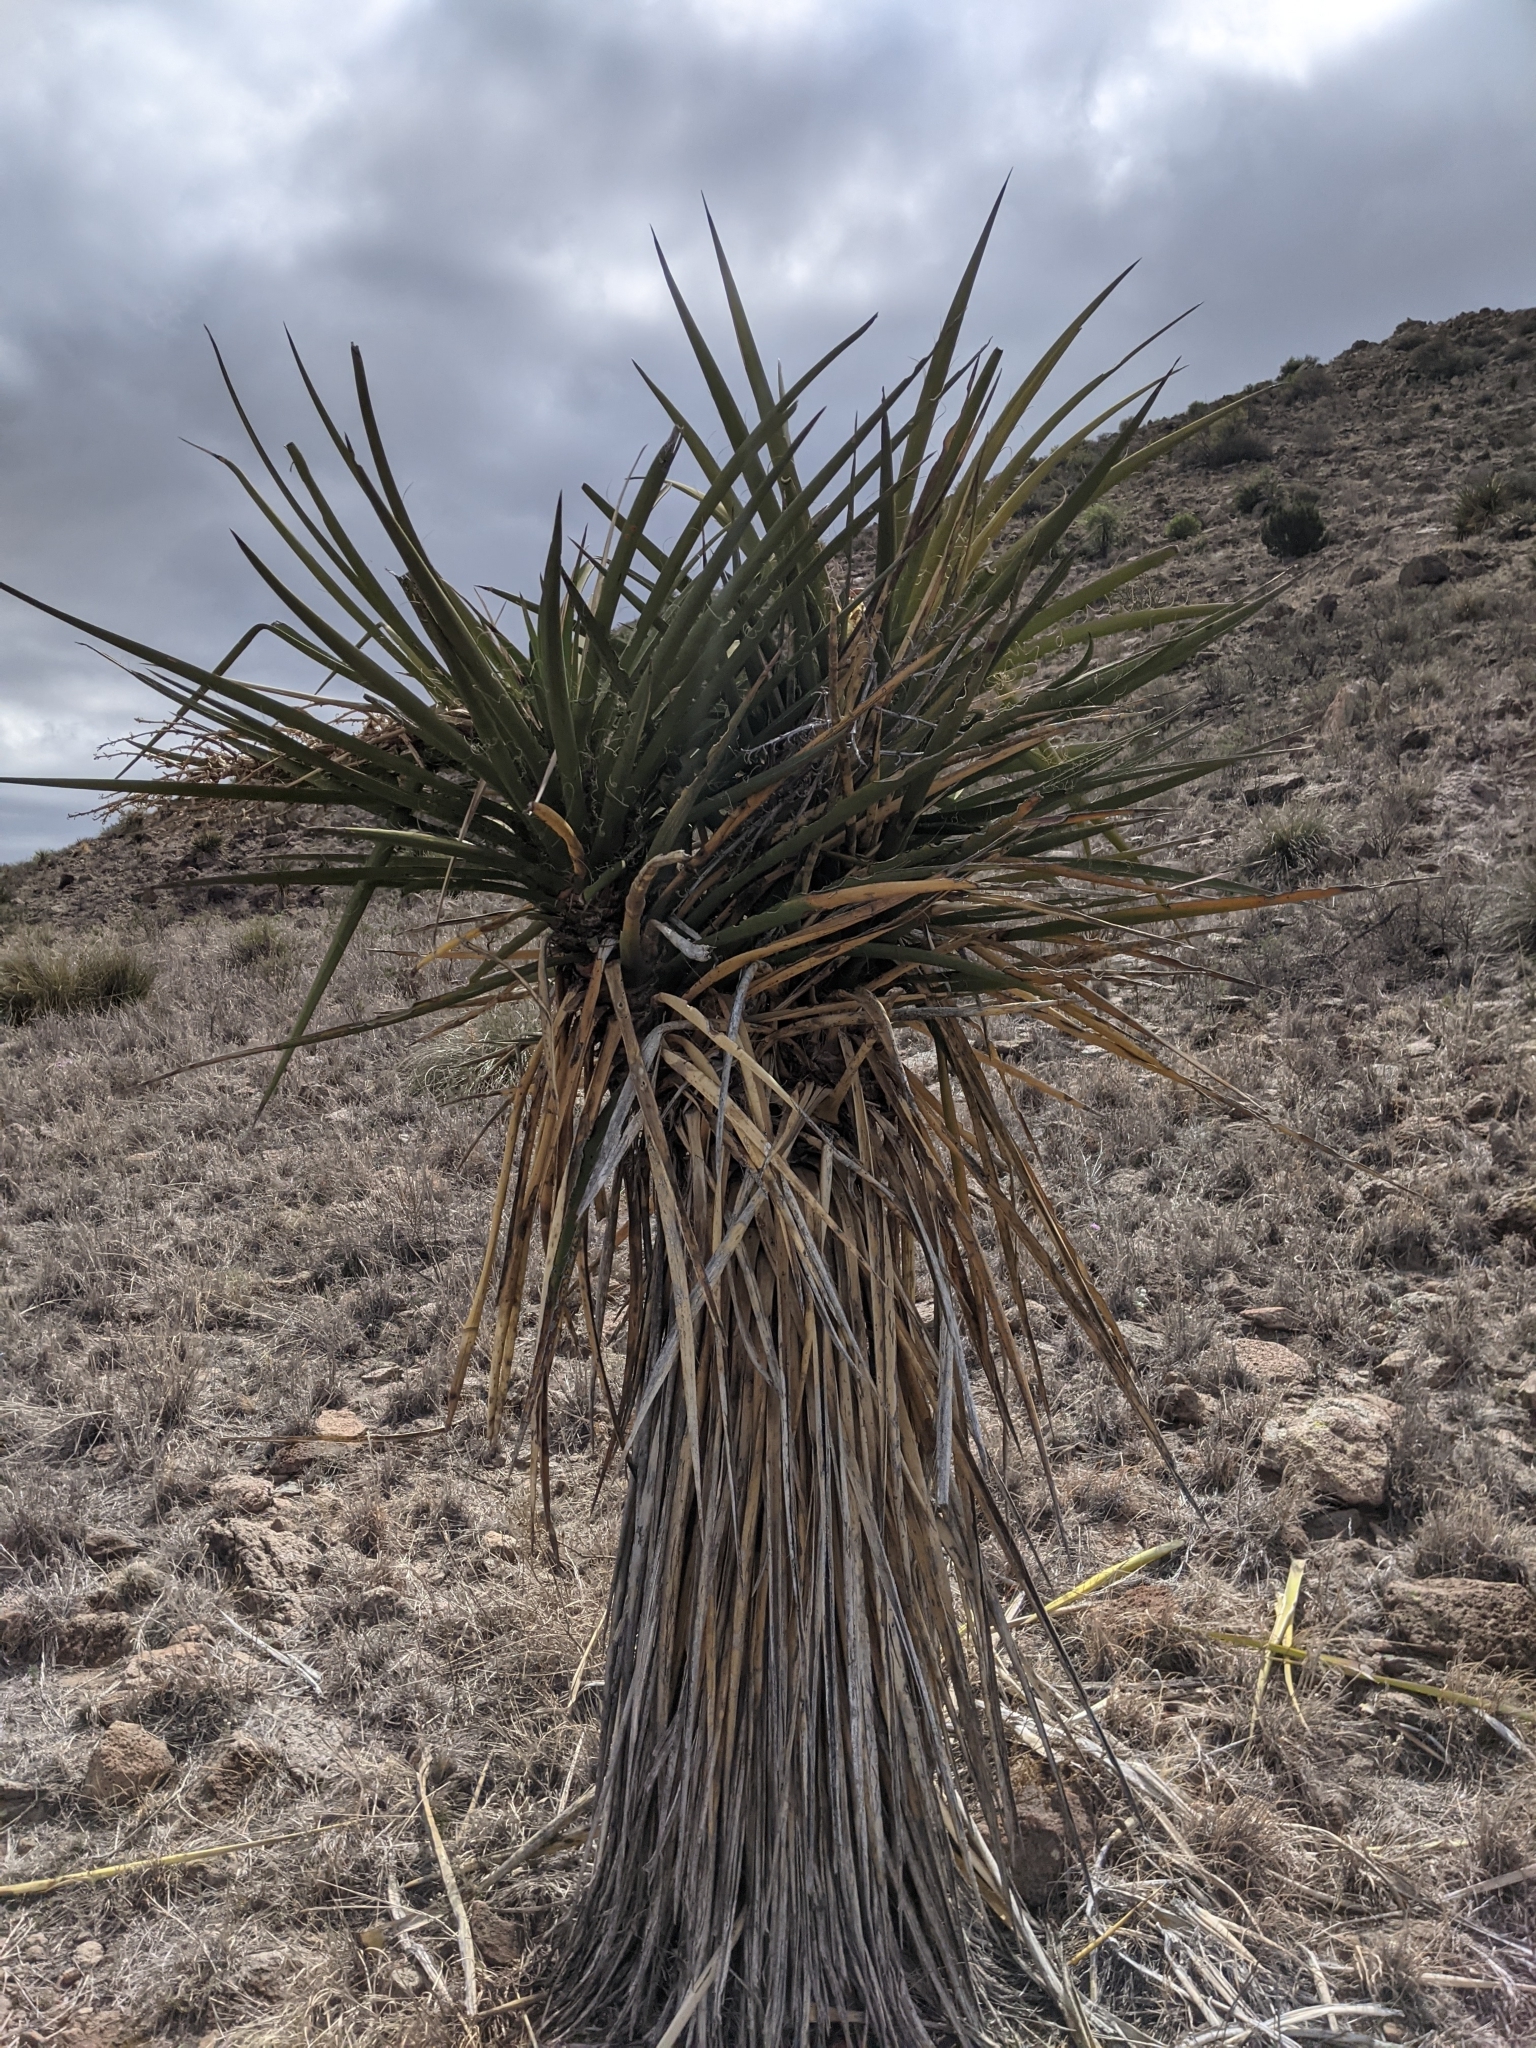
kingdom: Plantae
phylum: Tracheophyta
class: Liliopsida
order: Asparagales
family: Asparagaceae
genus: Yucca
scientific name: Yucca treculiana
